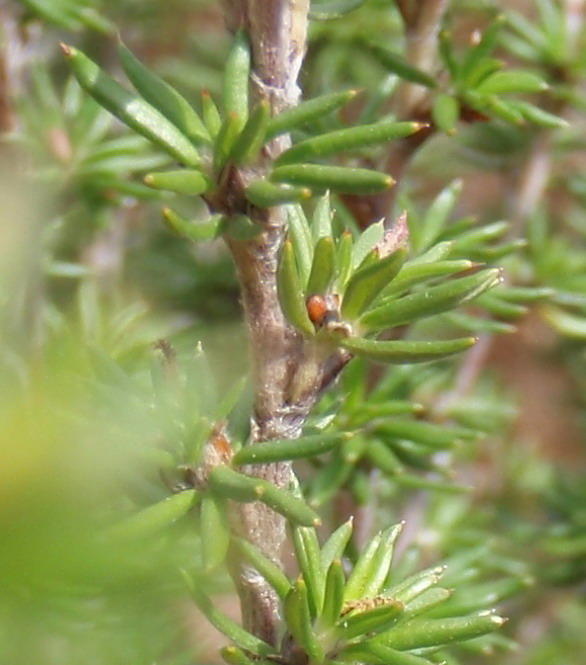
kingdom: Plantae
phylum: Tracheophyta
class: Magnoliopsida
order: Rosales
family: Rosaceae
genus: Cliffortia
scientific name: Cliffortia stricta
